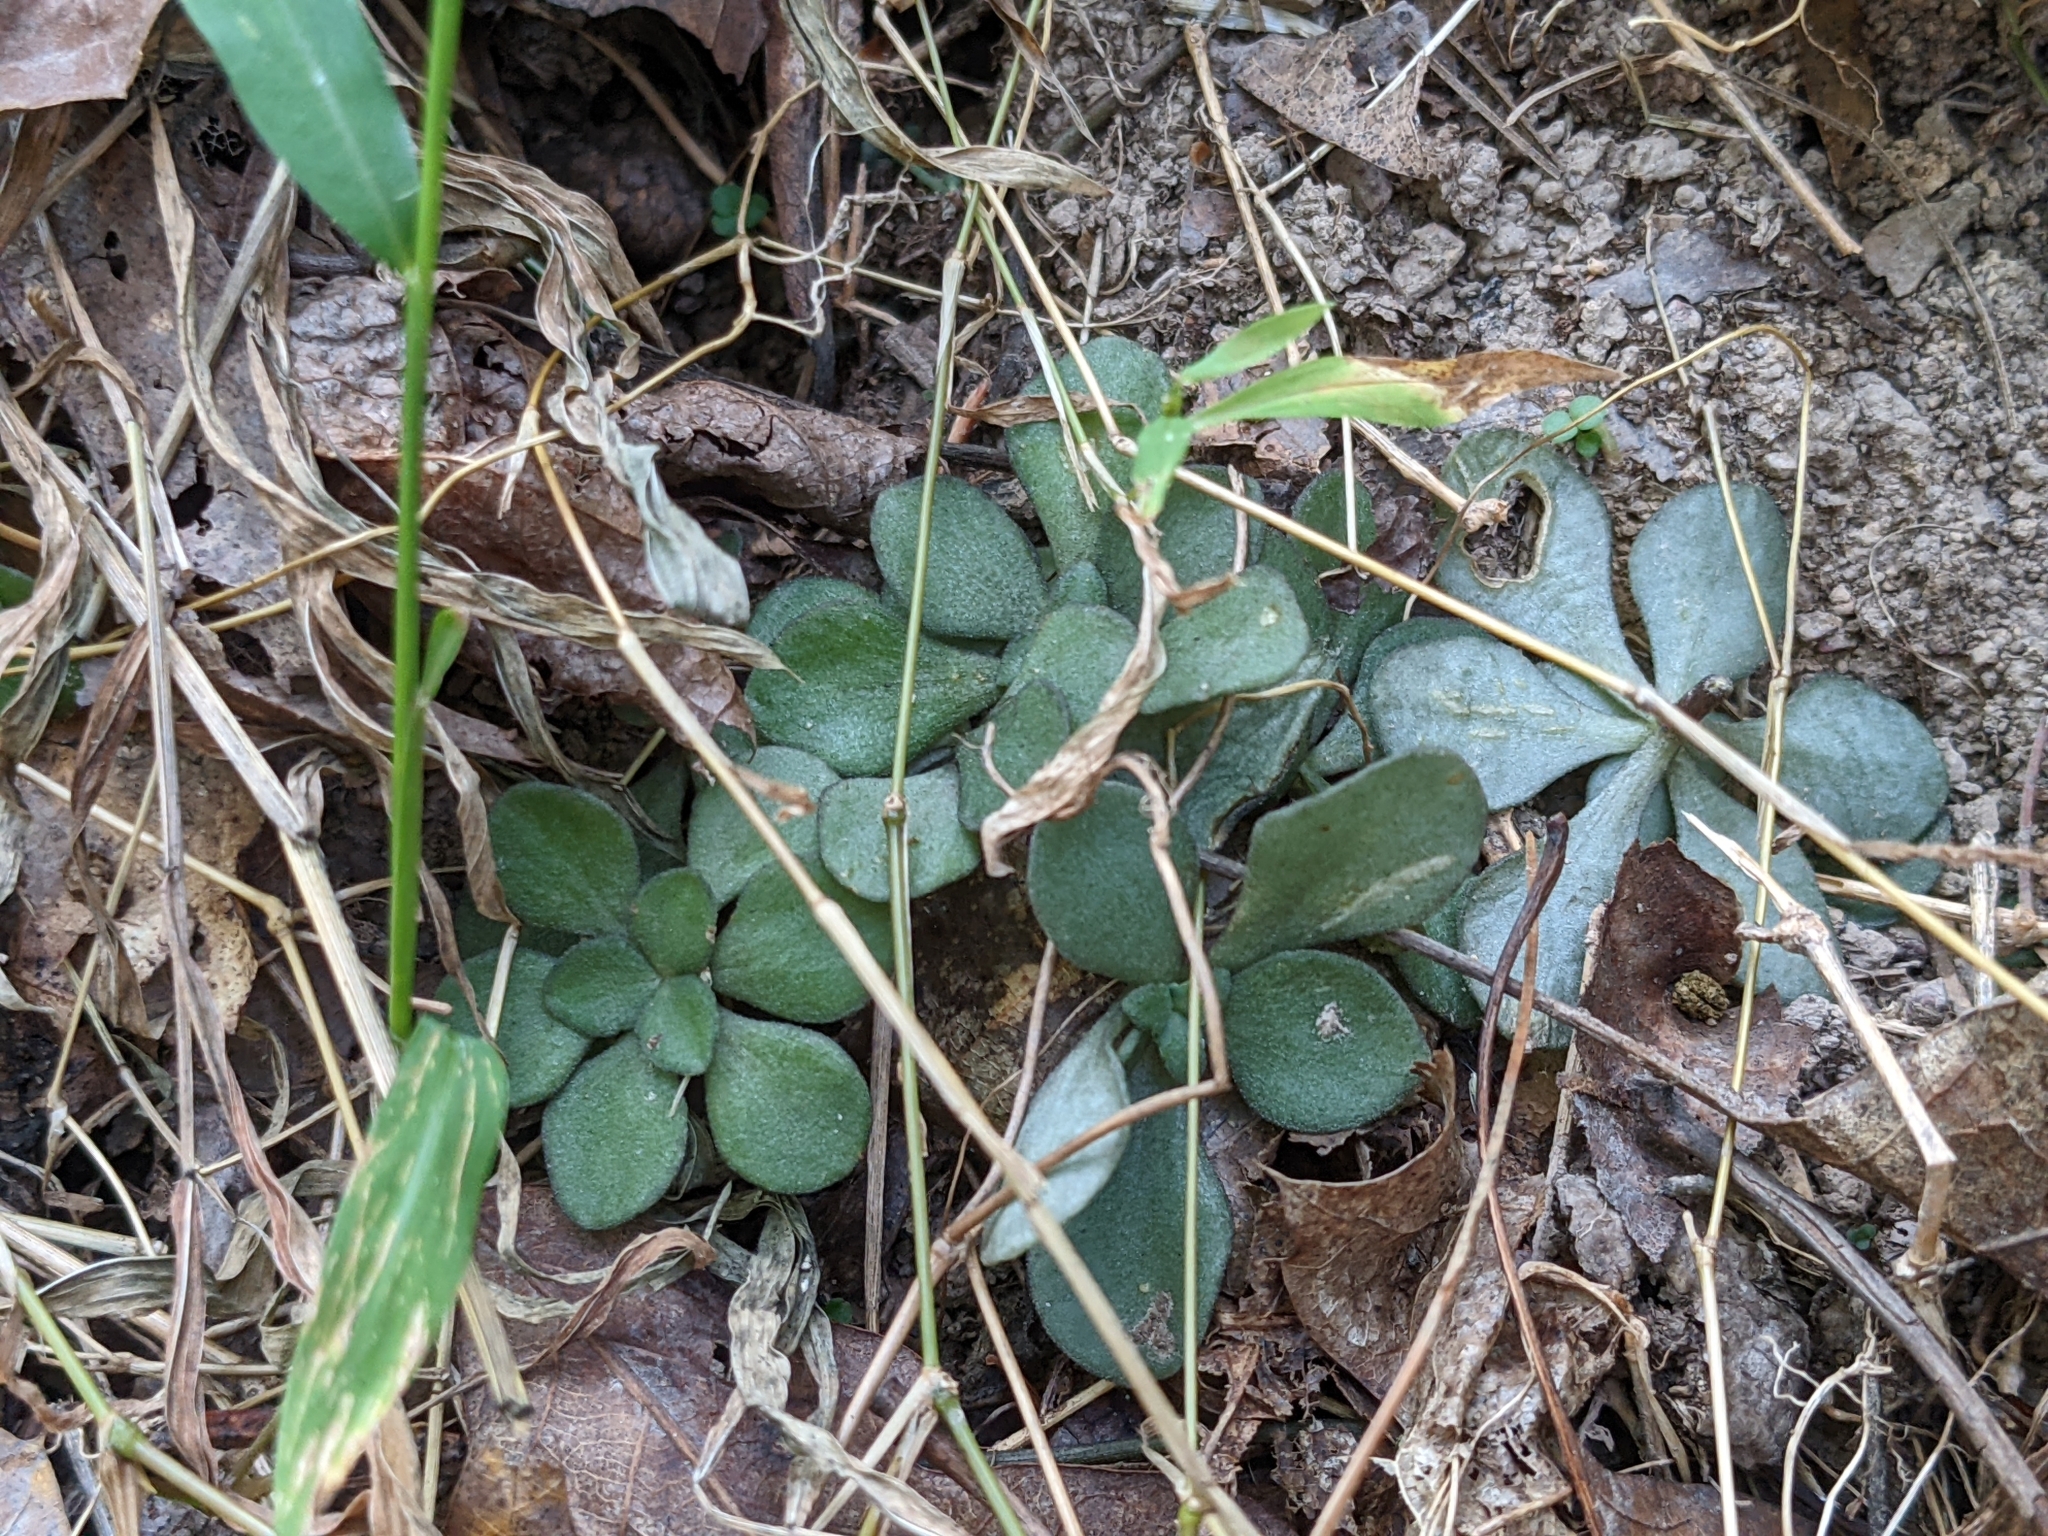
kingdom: Plantae
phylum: Tracheophyta
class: Magnoliopsida
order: Saxifragales
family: Crassulaceae
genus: Sedum
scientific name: Sedum ternatum
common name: Wild stonecrop
